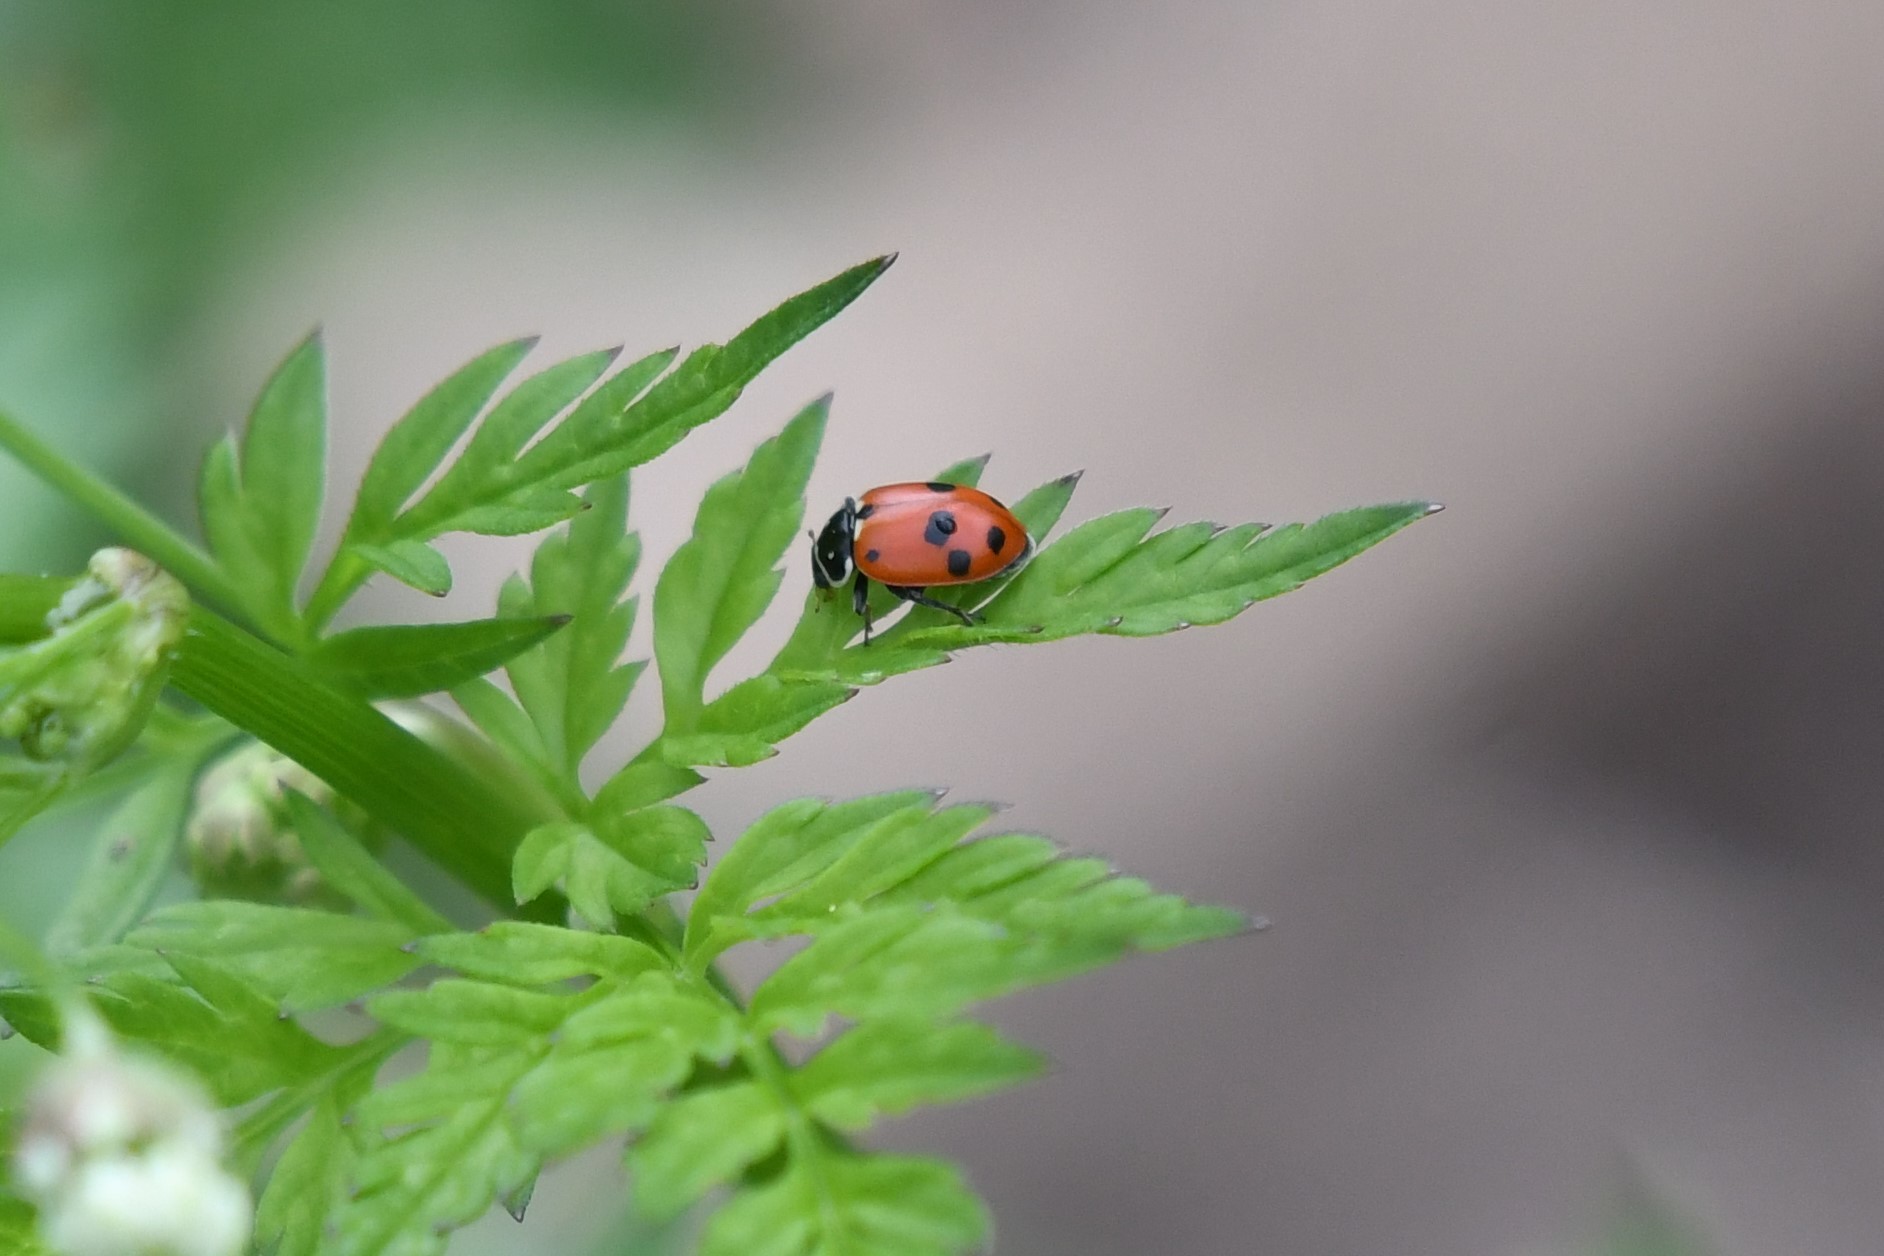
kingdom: Animalia
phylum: Arthropoda
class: Insecta
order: Coleoptera
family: Coccinellidae
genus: Hippodamia
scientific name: Hippodamia variegata
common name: Ladybird beetle
